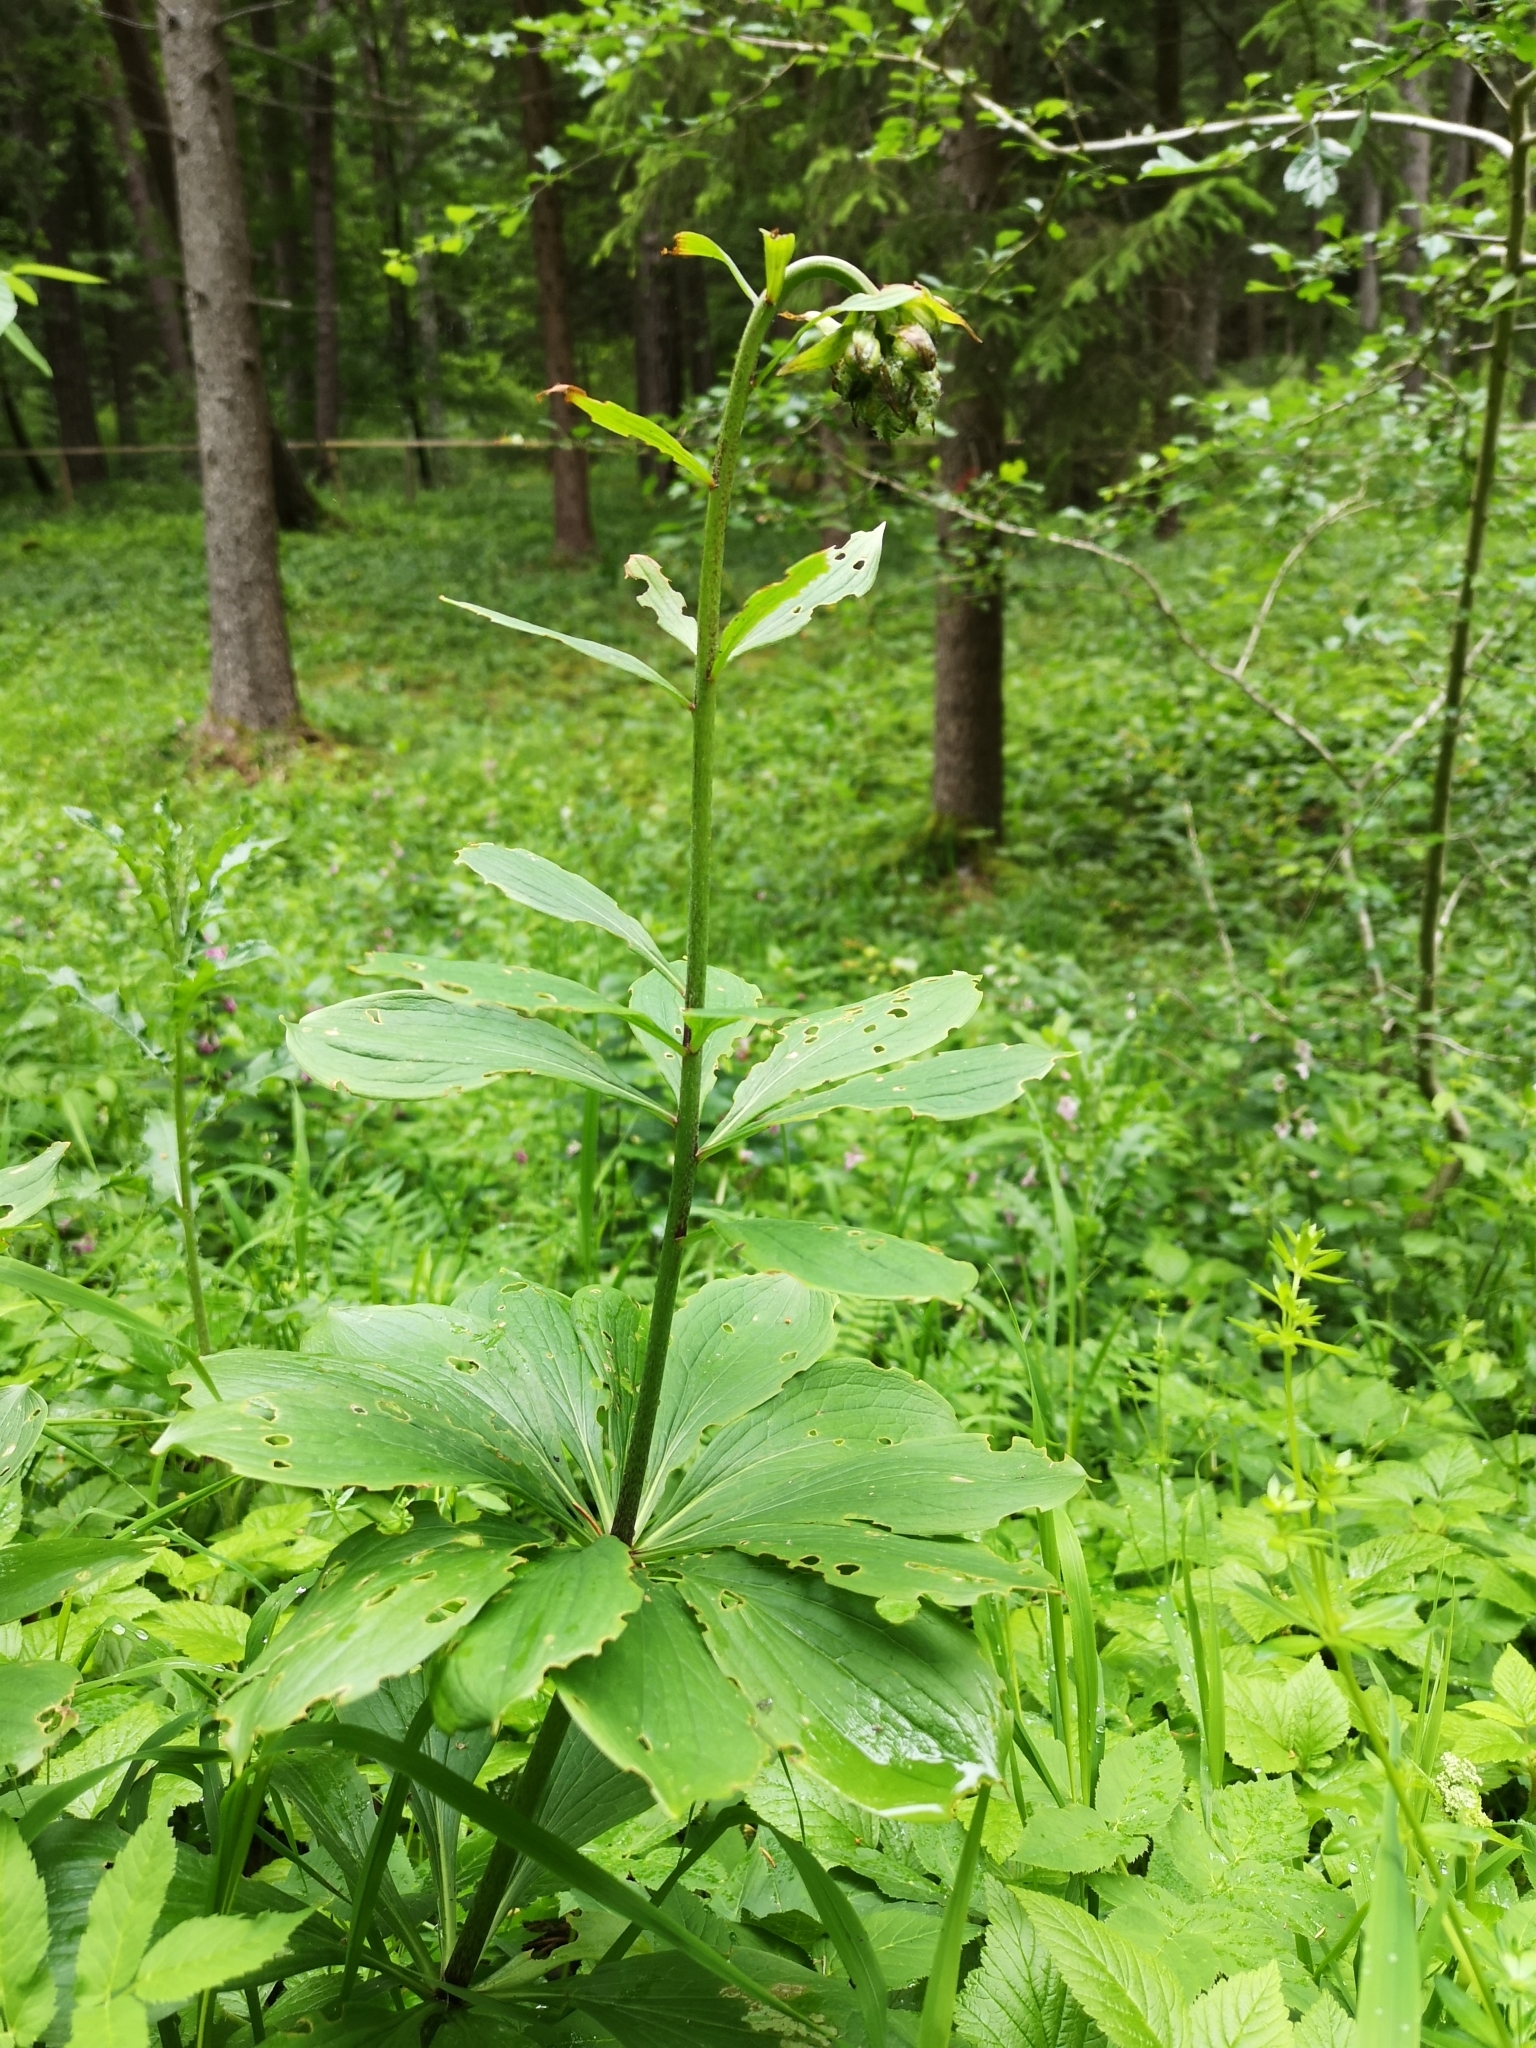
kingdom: Plantae
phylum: Tracheophyta
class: Liliopsida
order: Liliales
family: Liliaceae
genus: Lilium
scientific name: Lilium martagon
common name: Martagon lily
